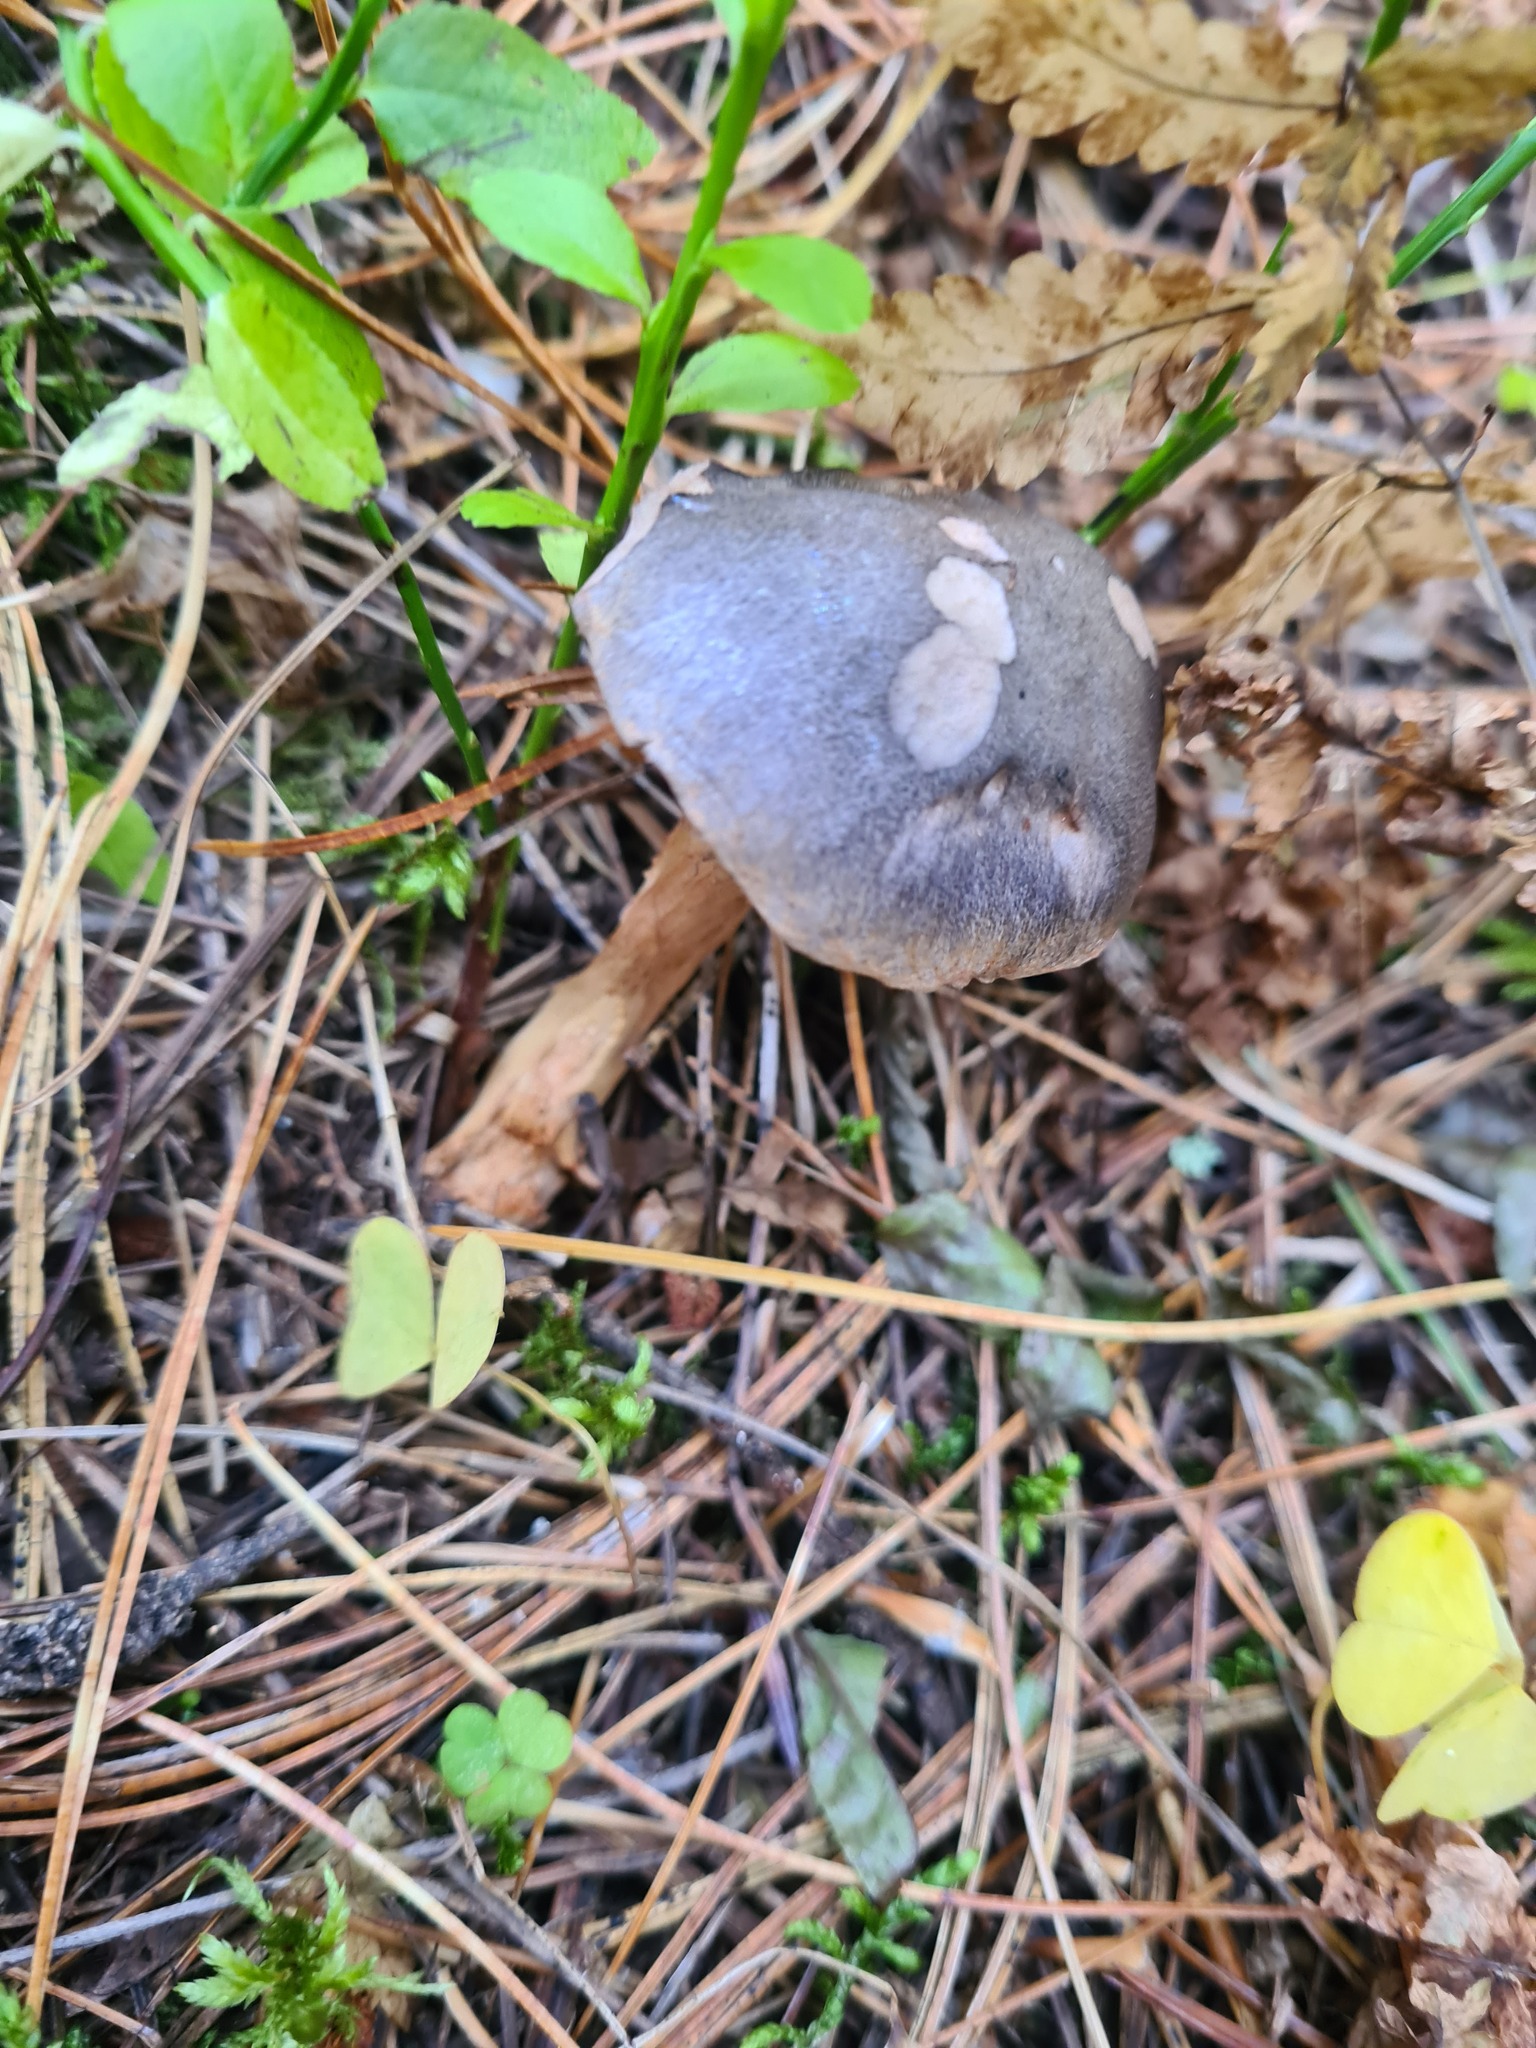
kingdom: Fungi
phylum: Basidiomycota
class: Agaricomycetes
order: Boletales
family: Gomphidiaceae
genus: Chroogomphus
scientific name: Chroogomphus rutilus
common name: Copper spike
